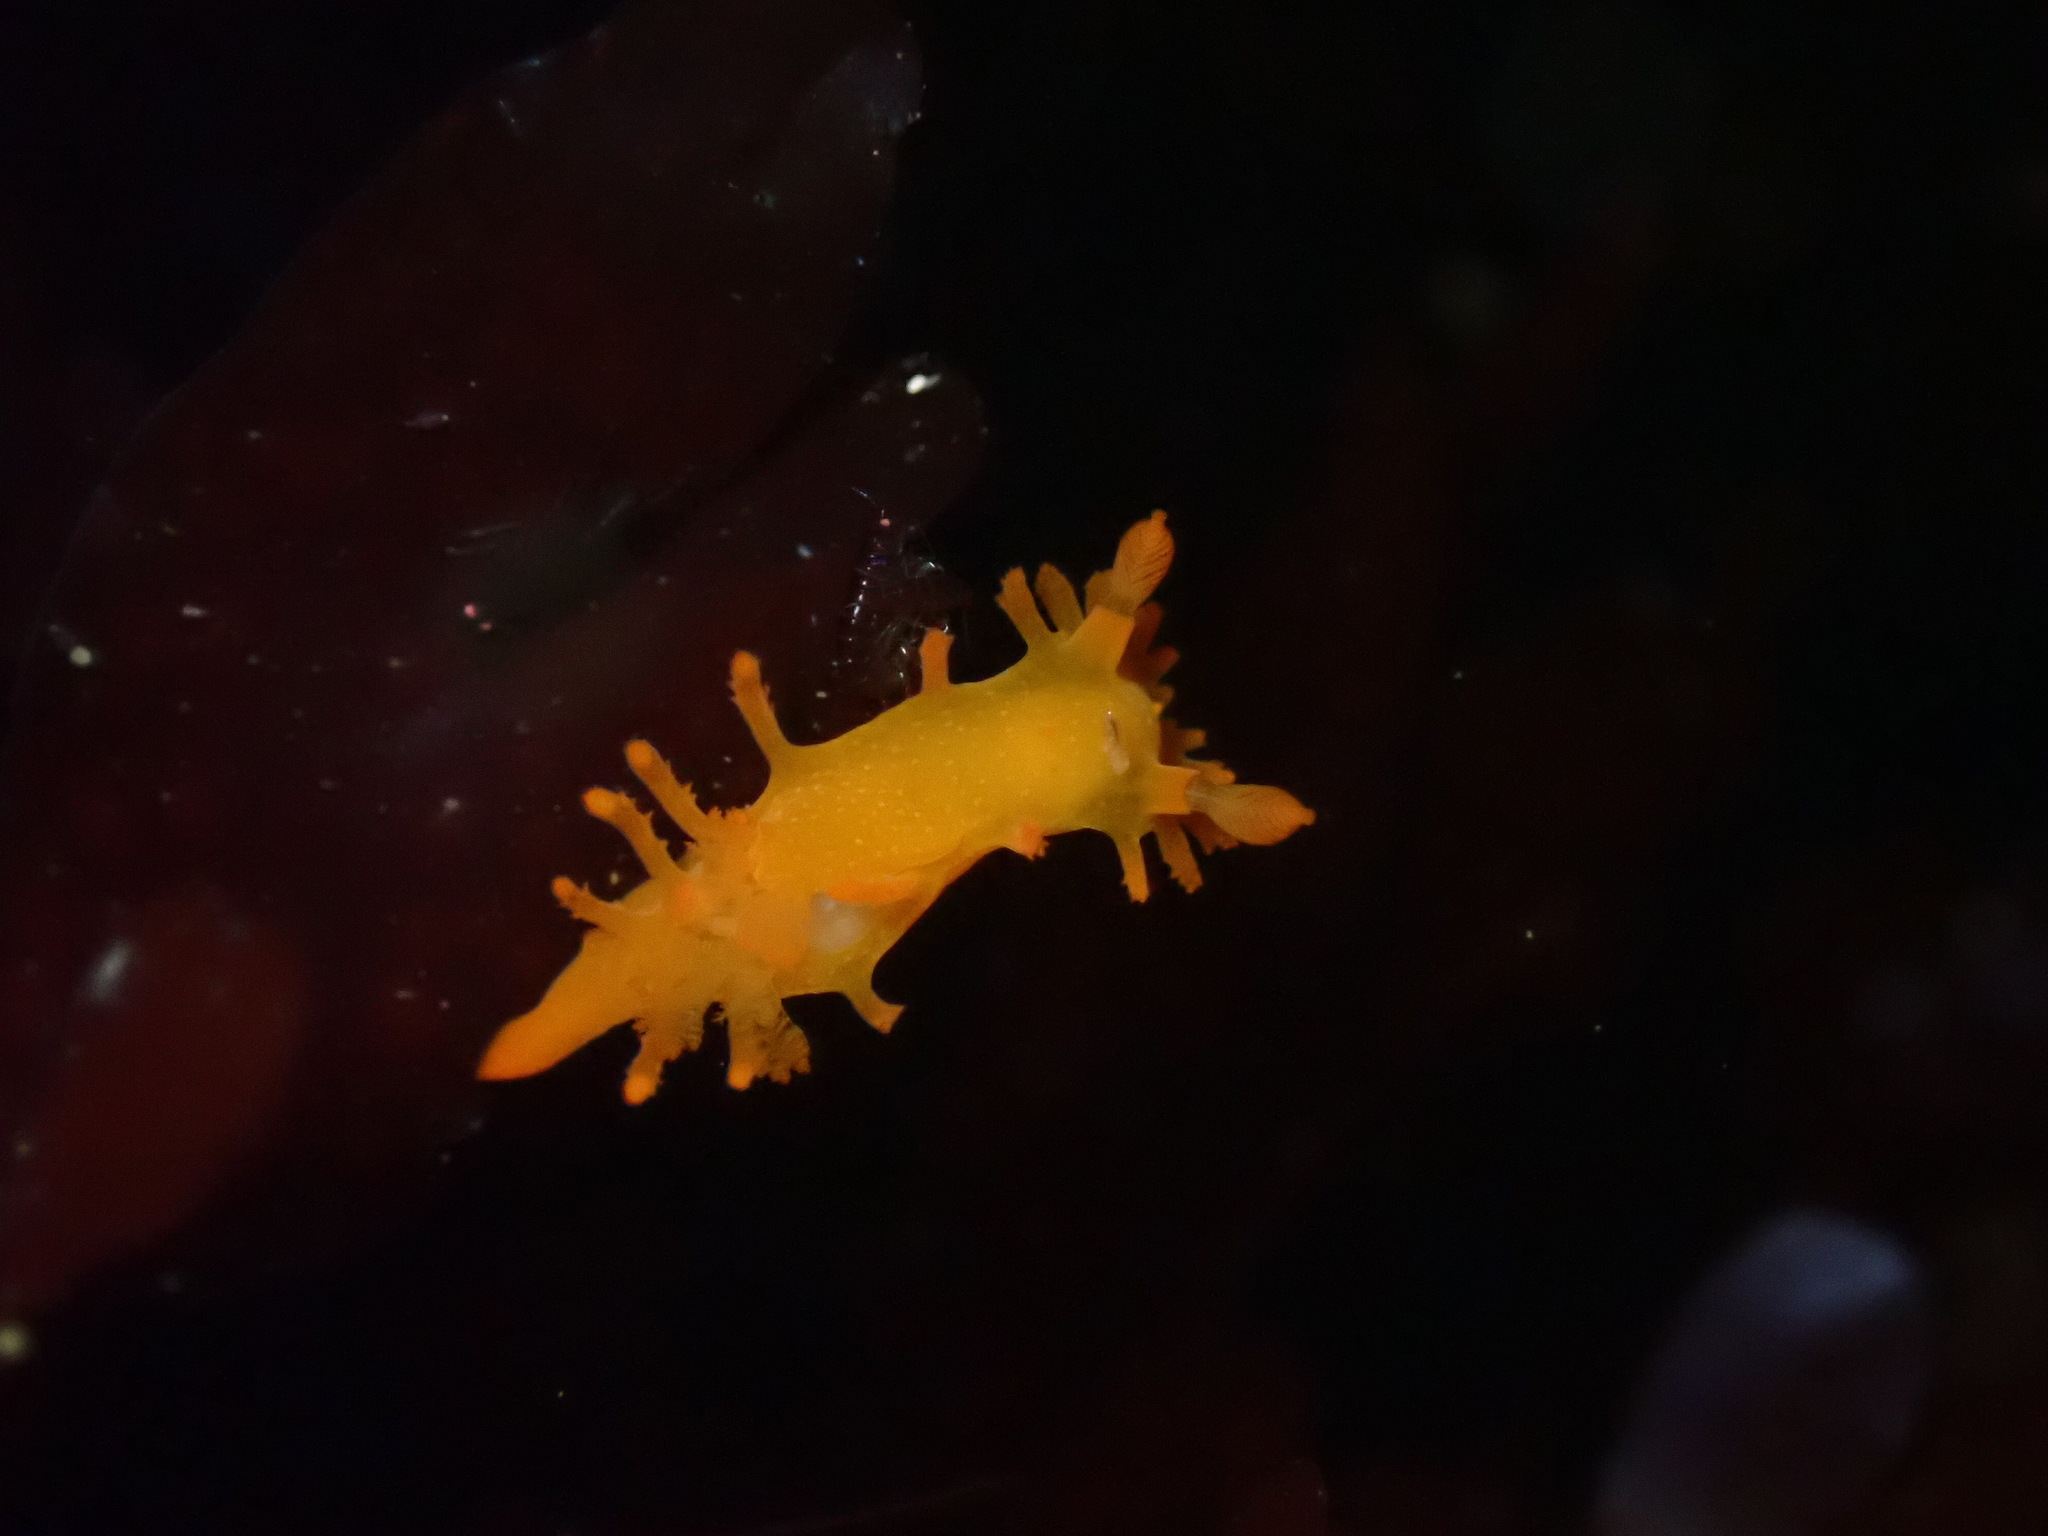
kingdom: Animalia
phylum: Mollusca
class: Gastropoda
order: Nudibranchia
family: Polyceridae
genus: Triopha
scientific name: Triopha maculata
